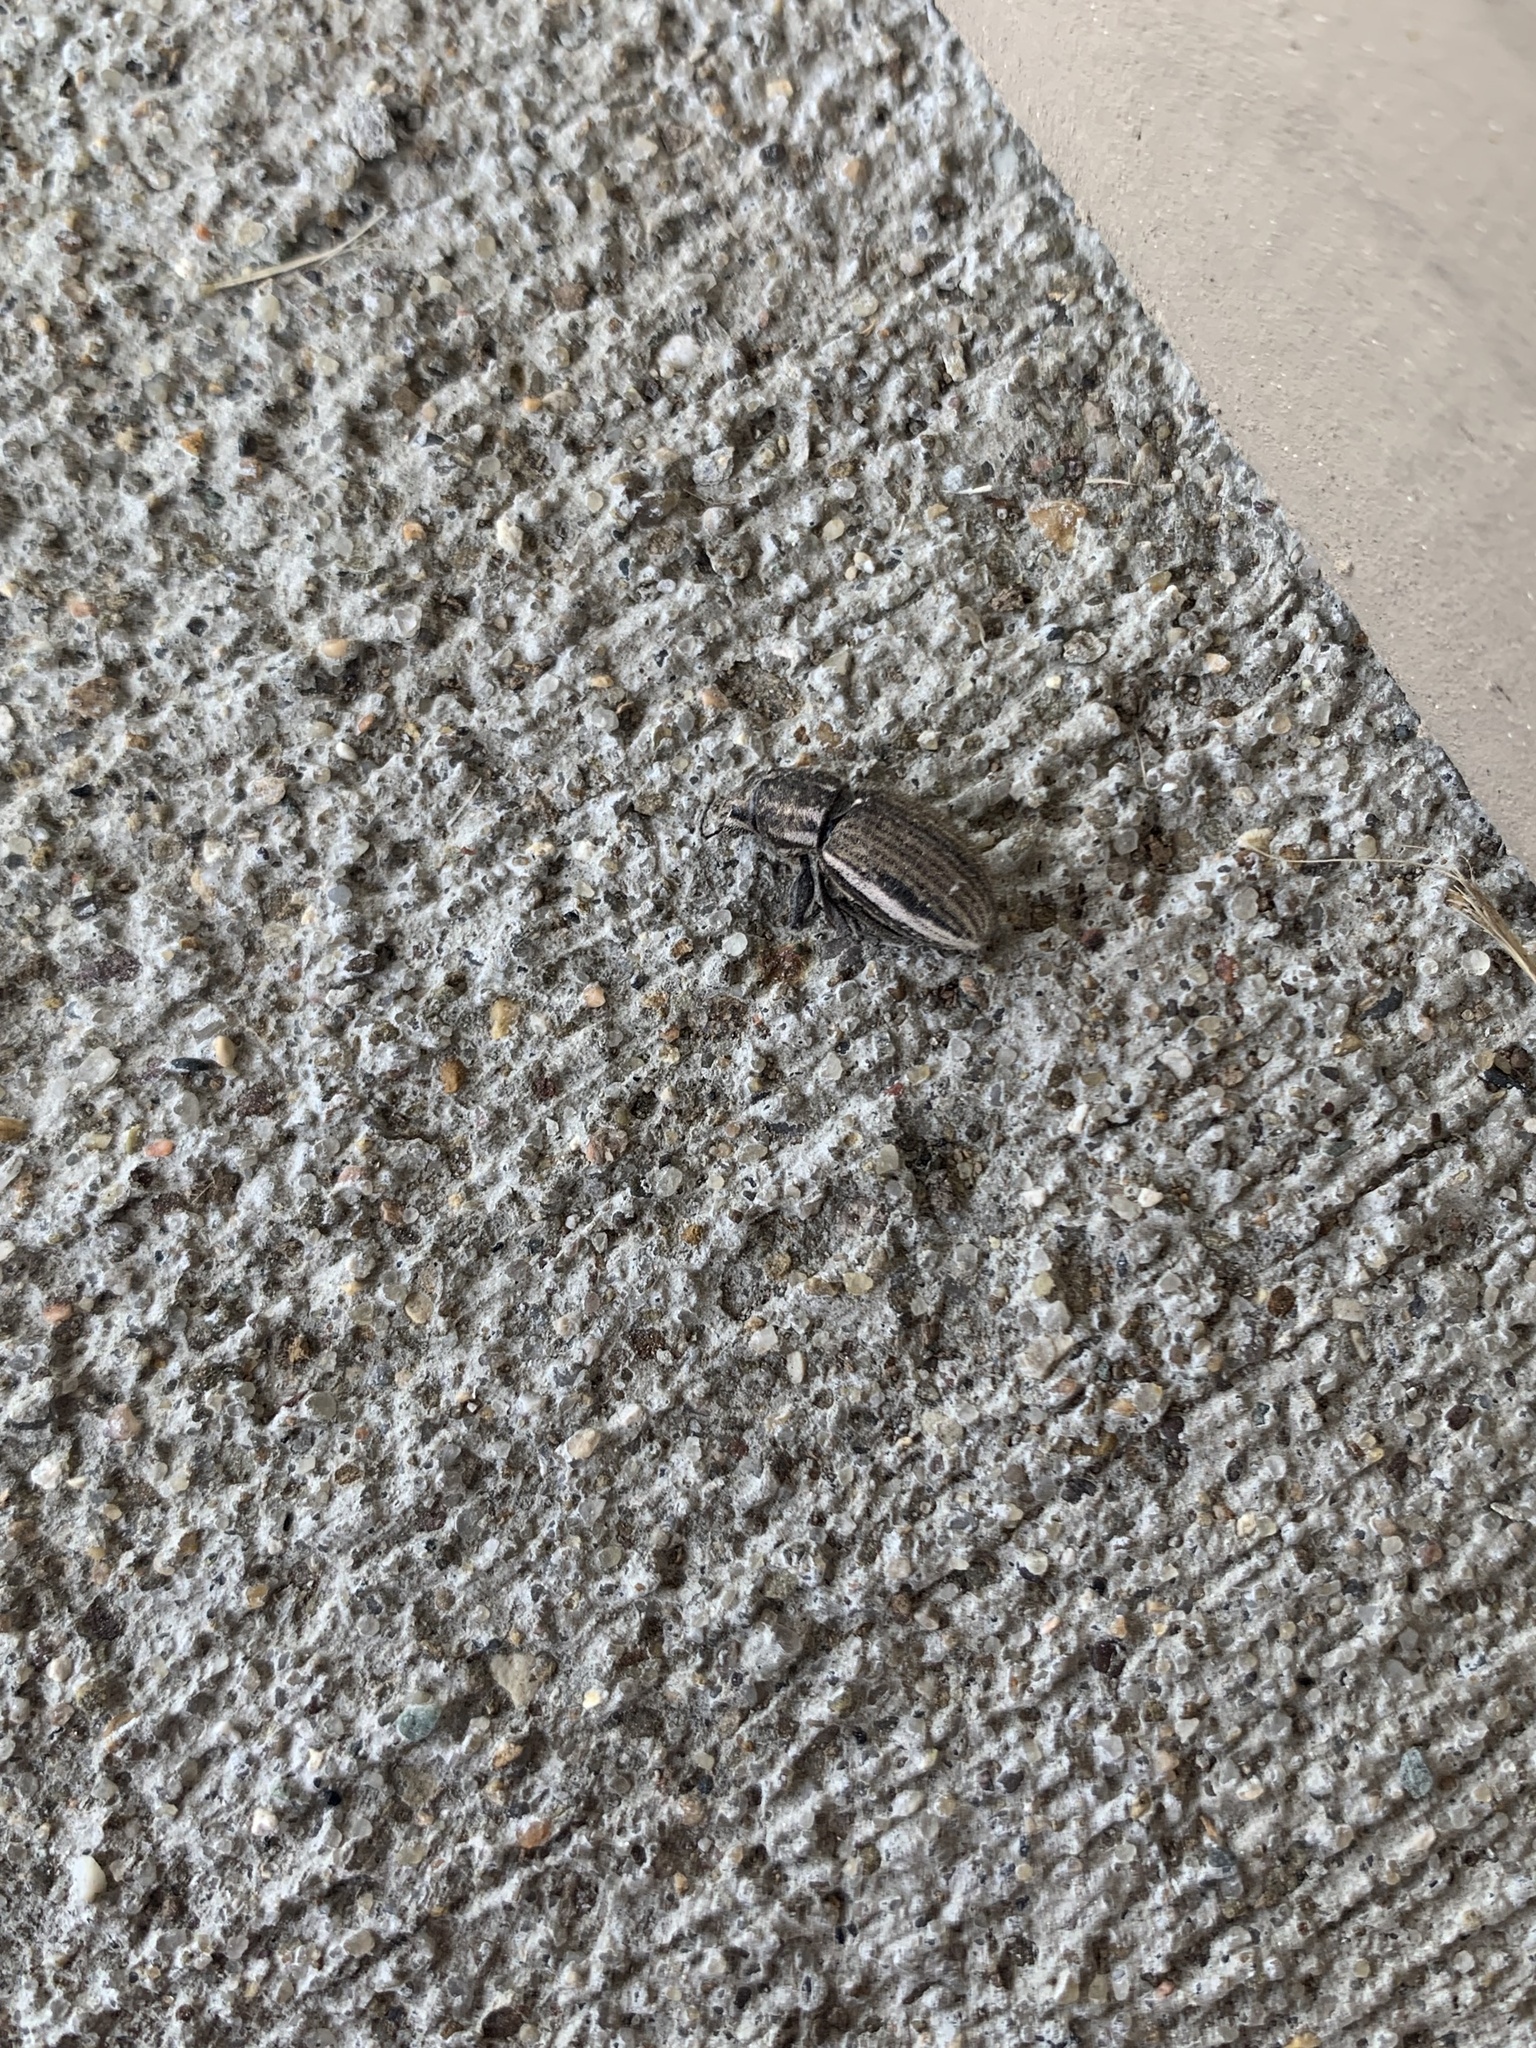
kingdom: Animalia
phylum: Arthropoda
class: Insecta
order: Coleoptera
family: Curculionidae
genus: Naupactus
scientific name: Naupactus leucoloma
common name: Whitefringed beetle
